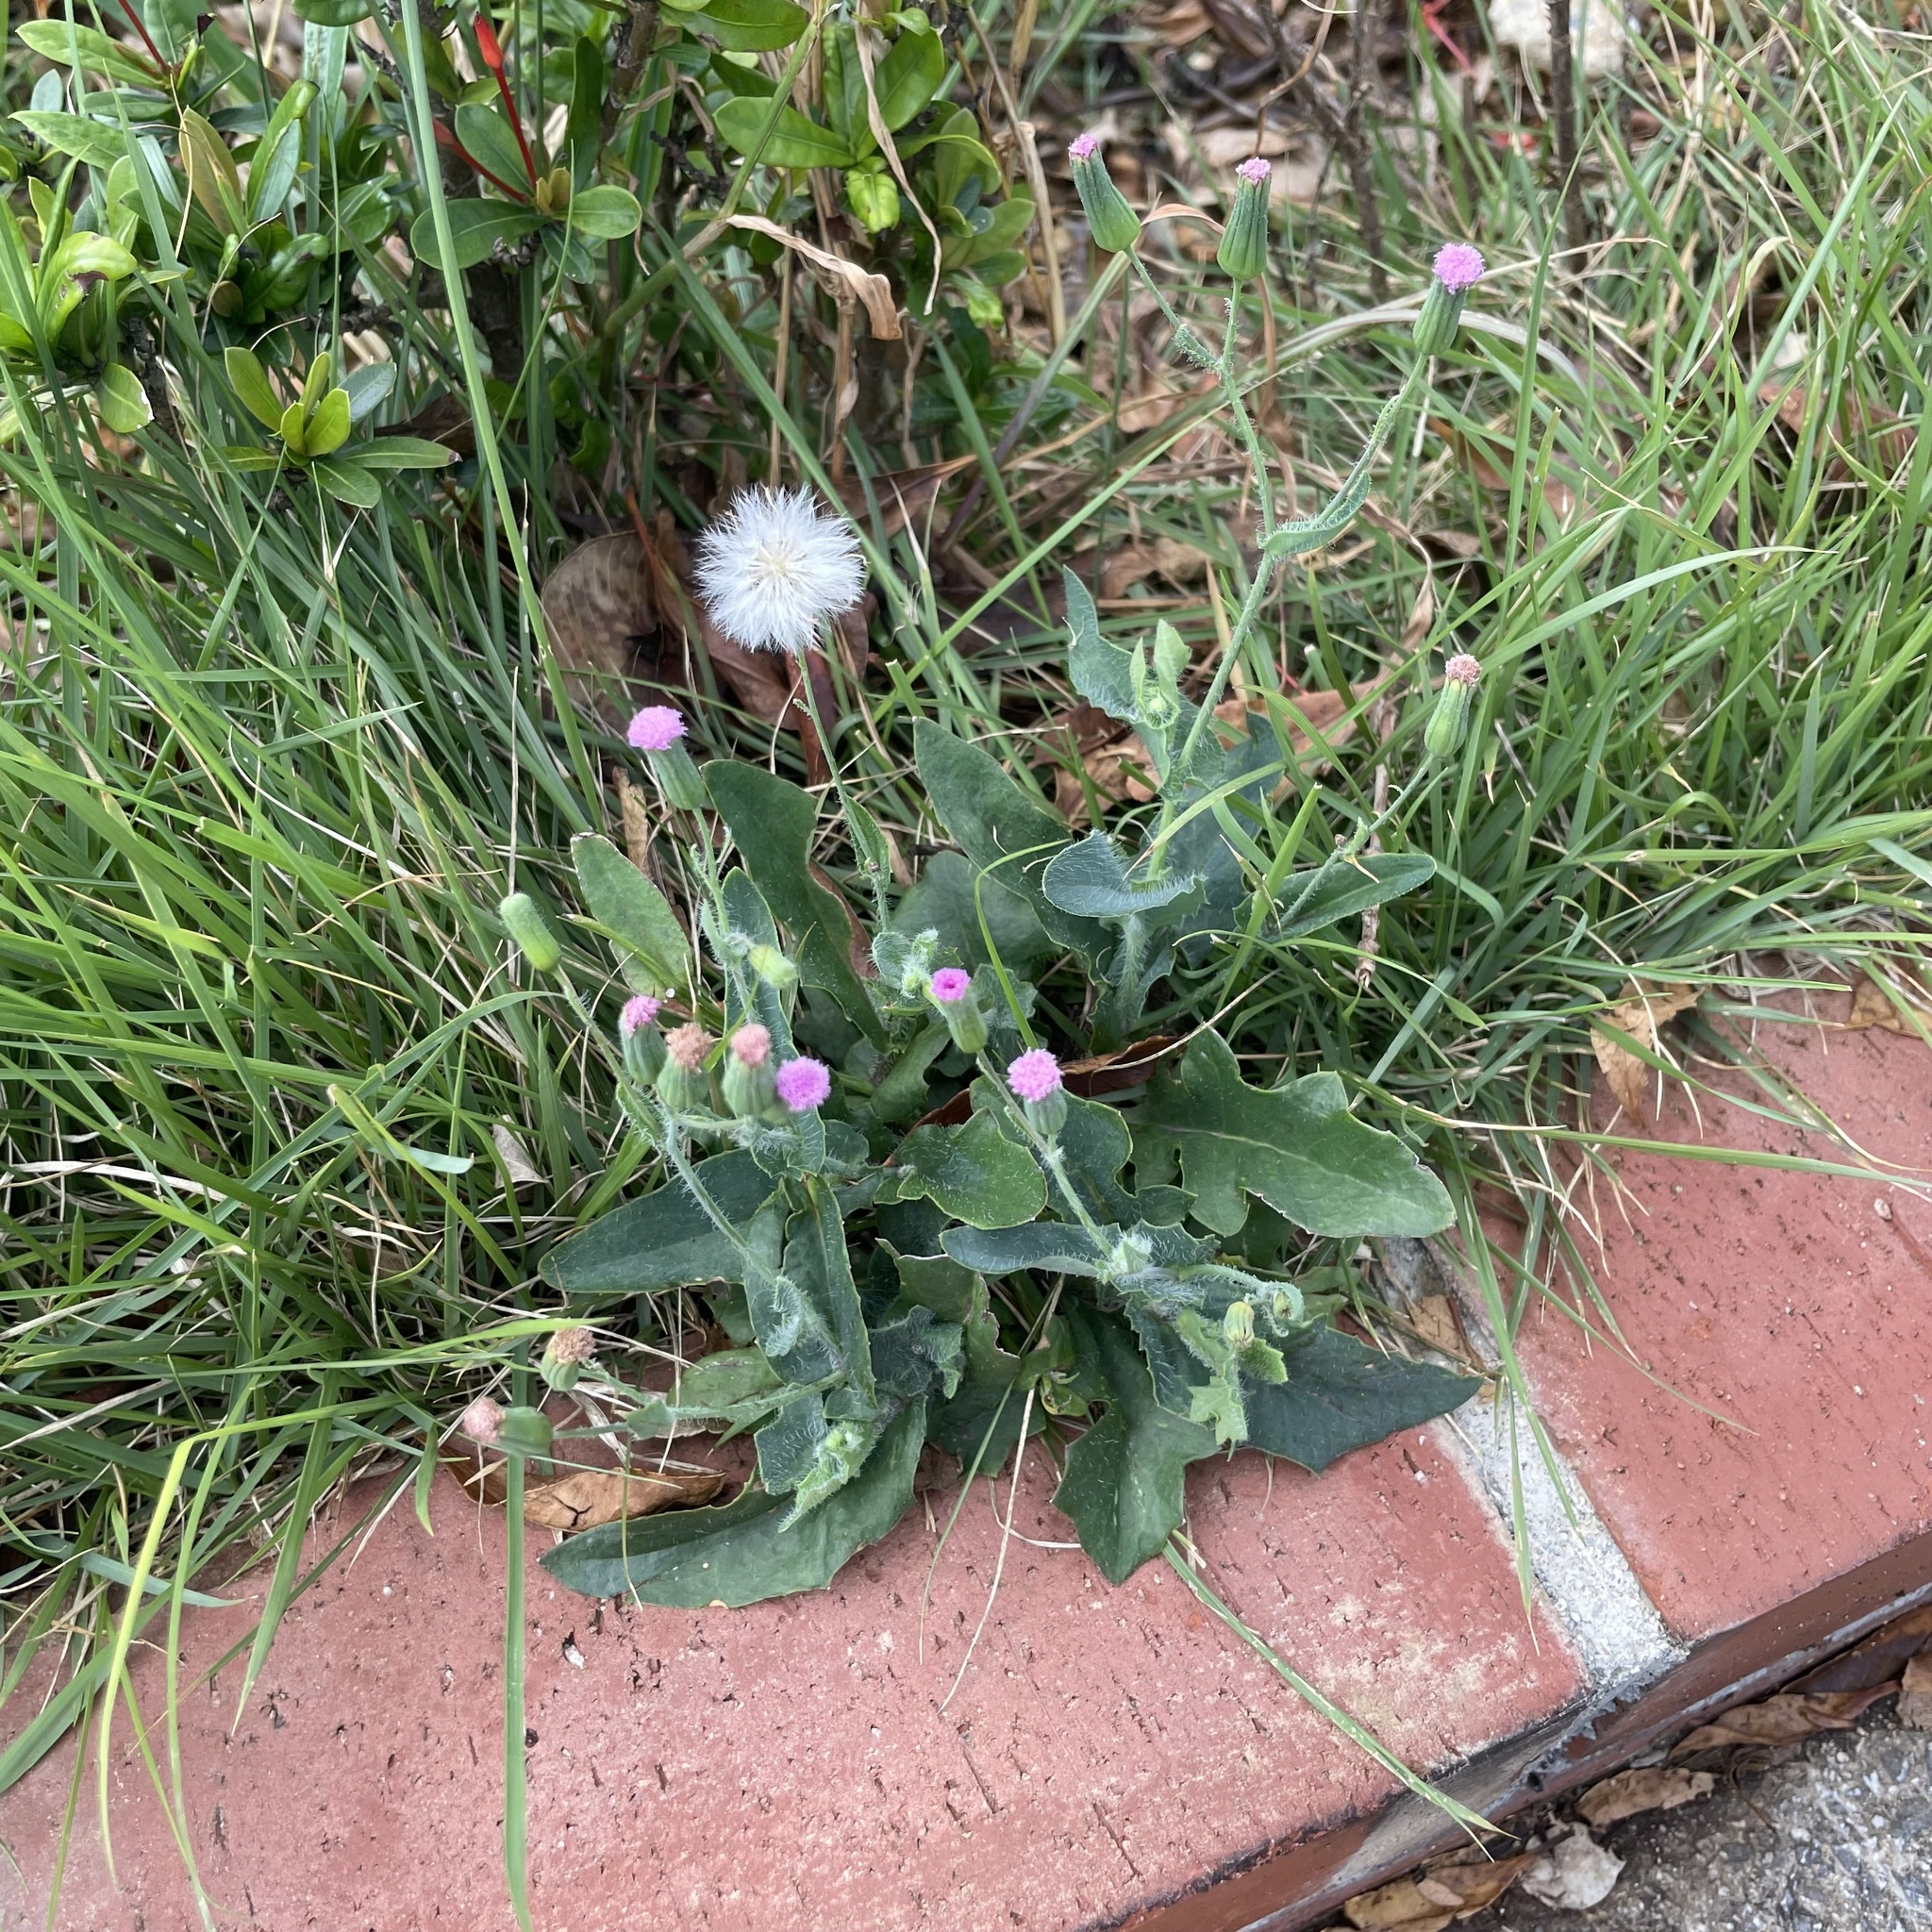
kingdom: Plantae
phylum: Tracheophyta
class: Magnoliopsida
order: Asterales
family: Asteraceae
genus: Emilia
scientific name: Emilia sonchifolia
